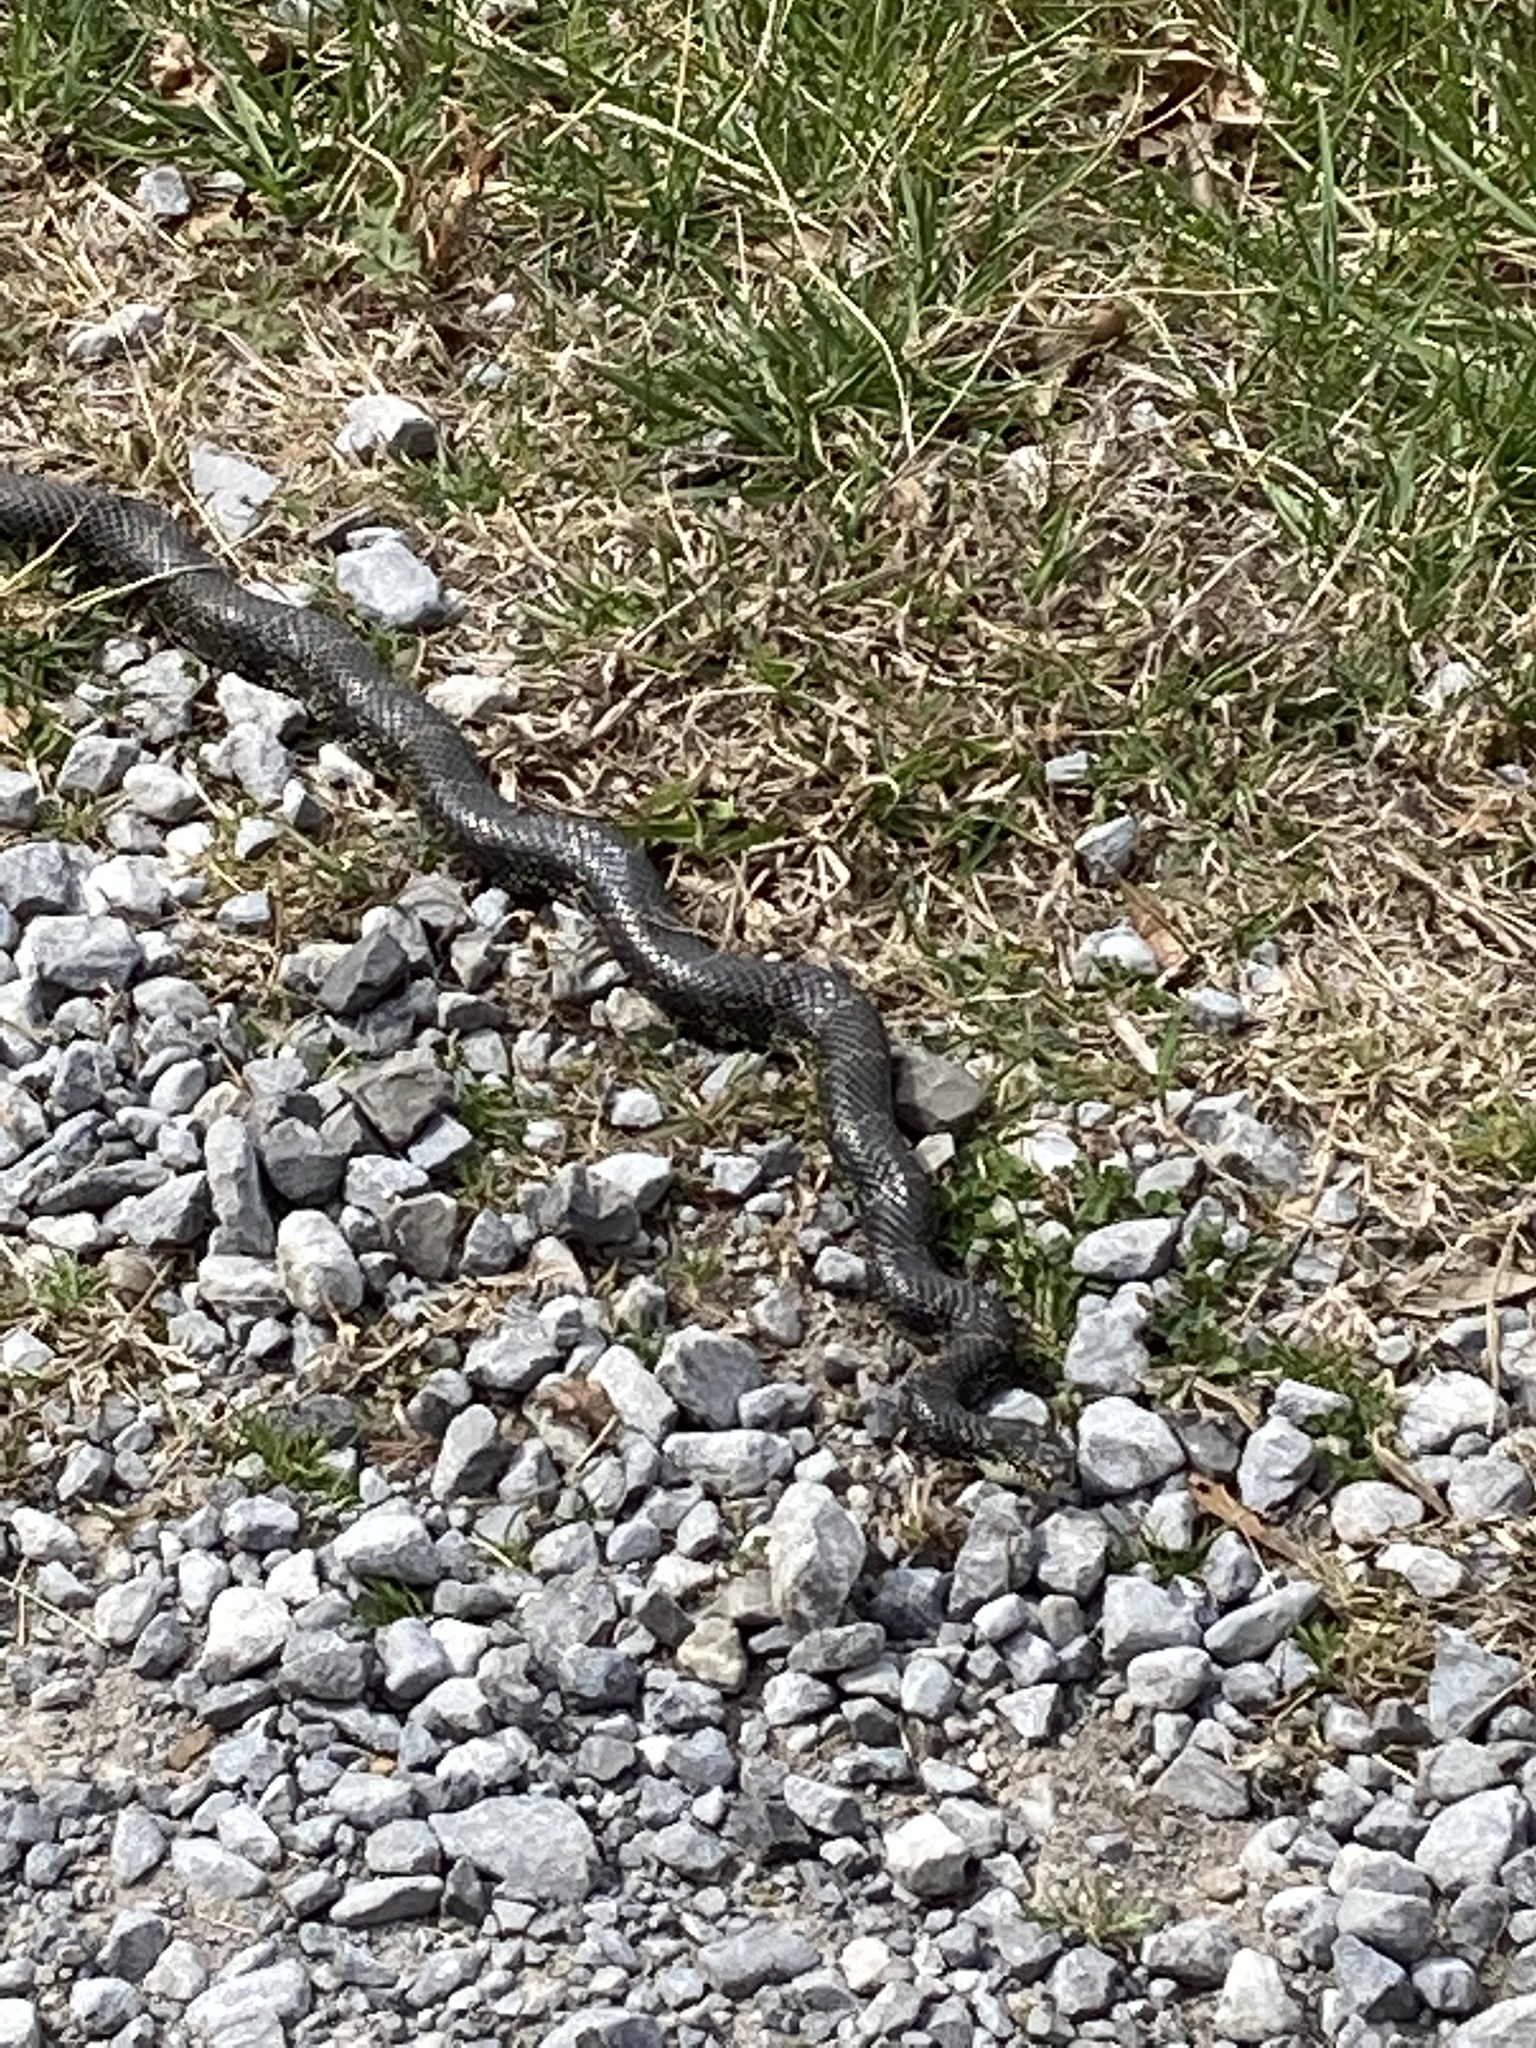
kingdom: Animalia
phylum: Chordata
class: Squamata
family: Colubridae
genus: Lampropeltis
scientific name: Lampropeltis nigra
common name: Black kingsnake
